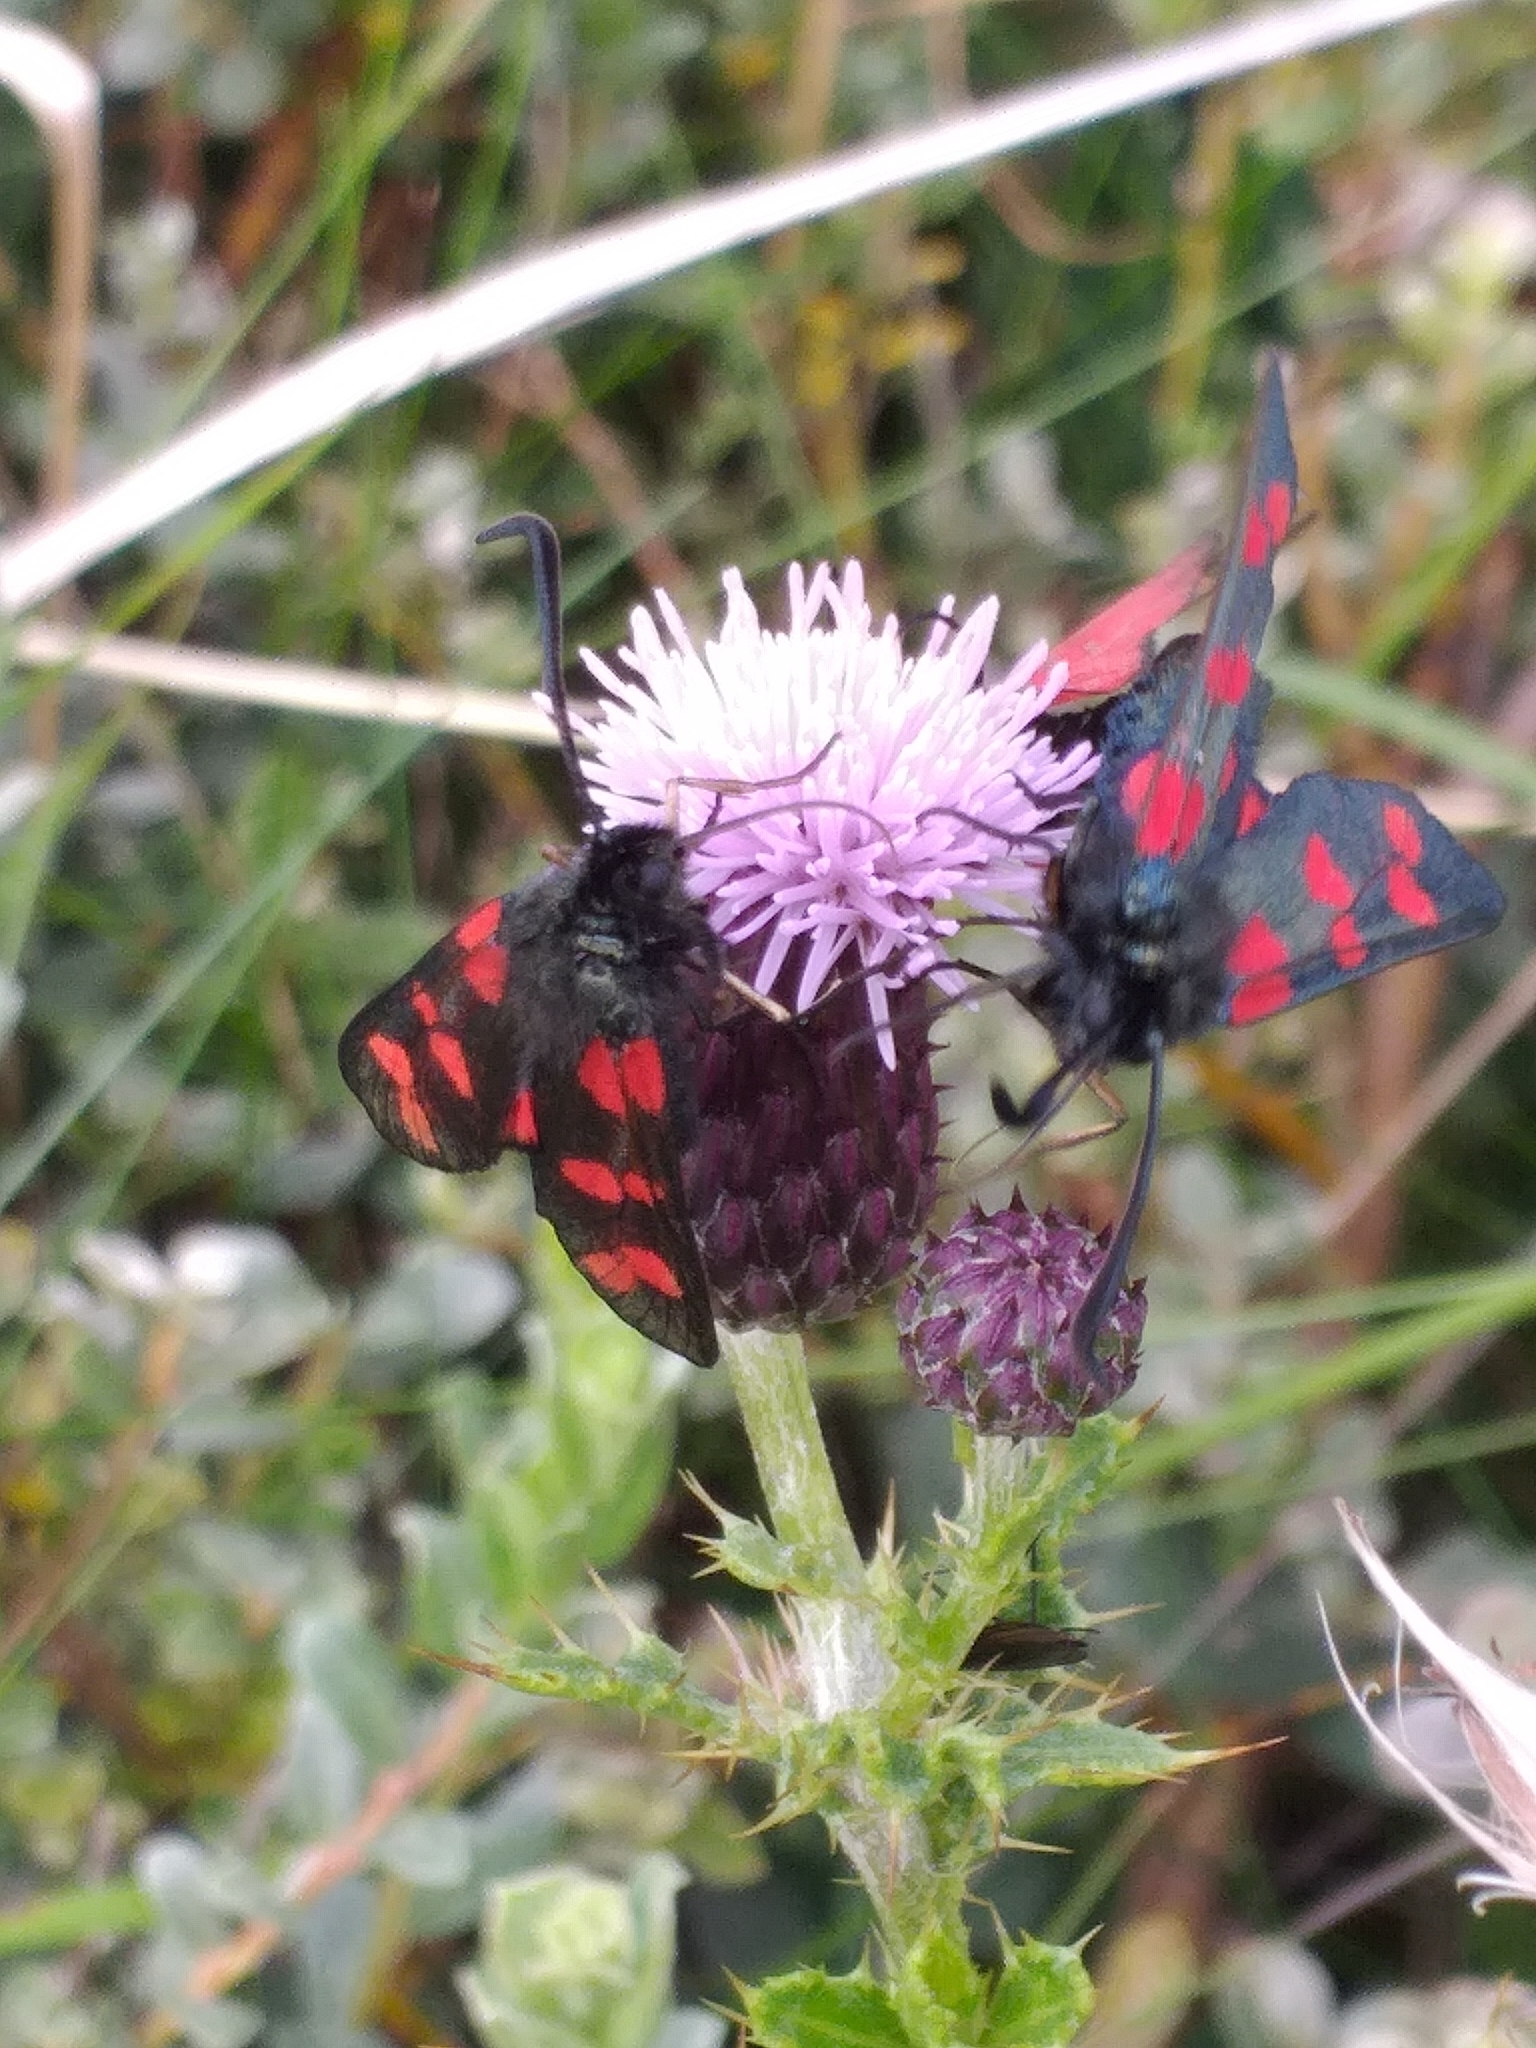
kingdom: Animalia
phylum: Arthropoda
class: Insecta
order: Lepidoptera
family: Zygaenidae
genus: Zygaena
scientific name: Zygaena filipendulae
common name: Six-spot burnet
